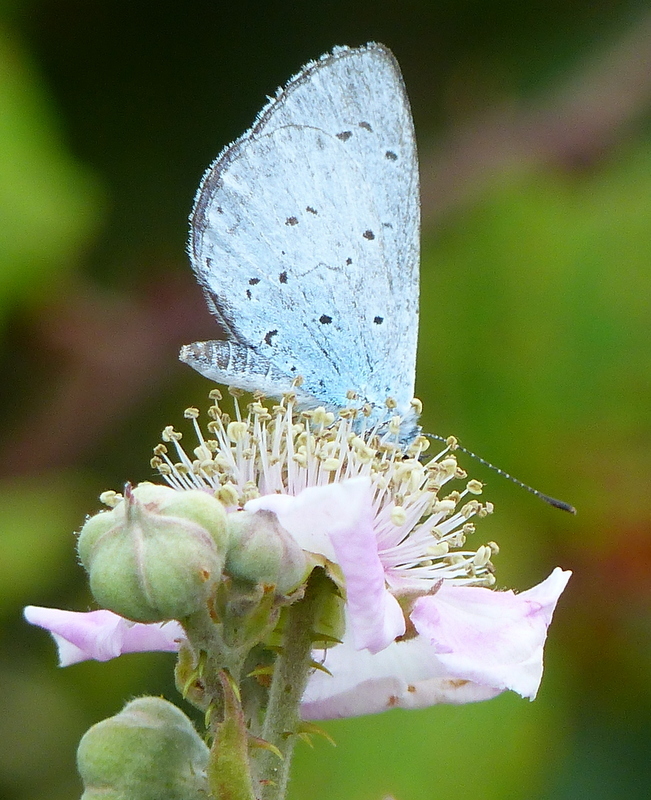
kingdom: Animalia
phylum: Arthropoda
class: Insecta
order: Lepidoptera
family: Lycaenidae
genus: Celastrina
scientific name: Celastrina argiolus
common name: Holly blue
